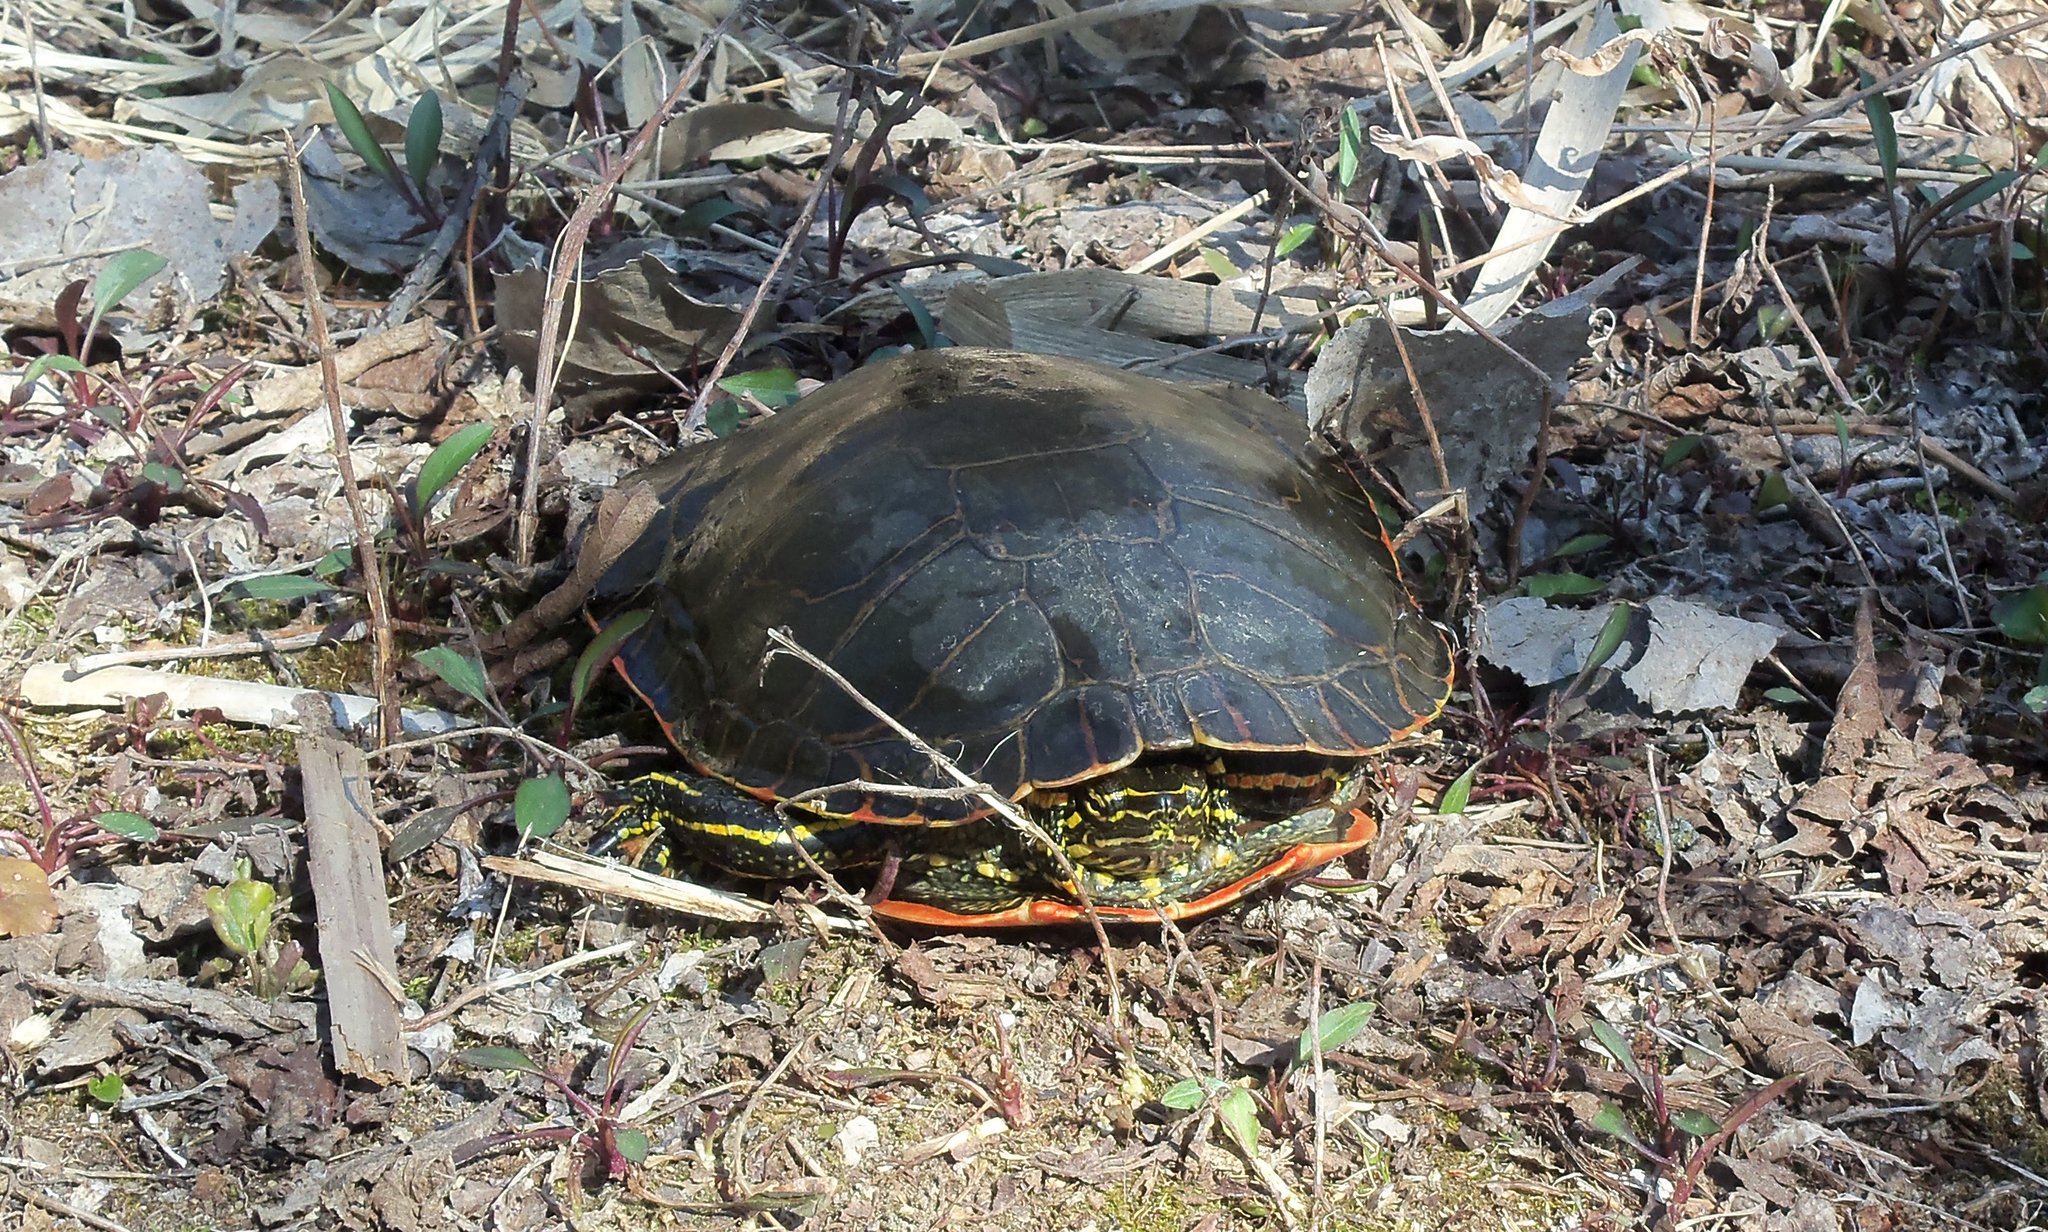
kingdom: Animalia
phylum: Chordata
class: Testudines
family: Emydidae
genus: Chrysemys
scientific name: Chrysemys picta
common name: Painted turtle
